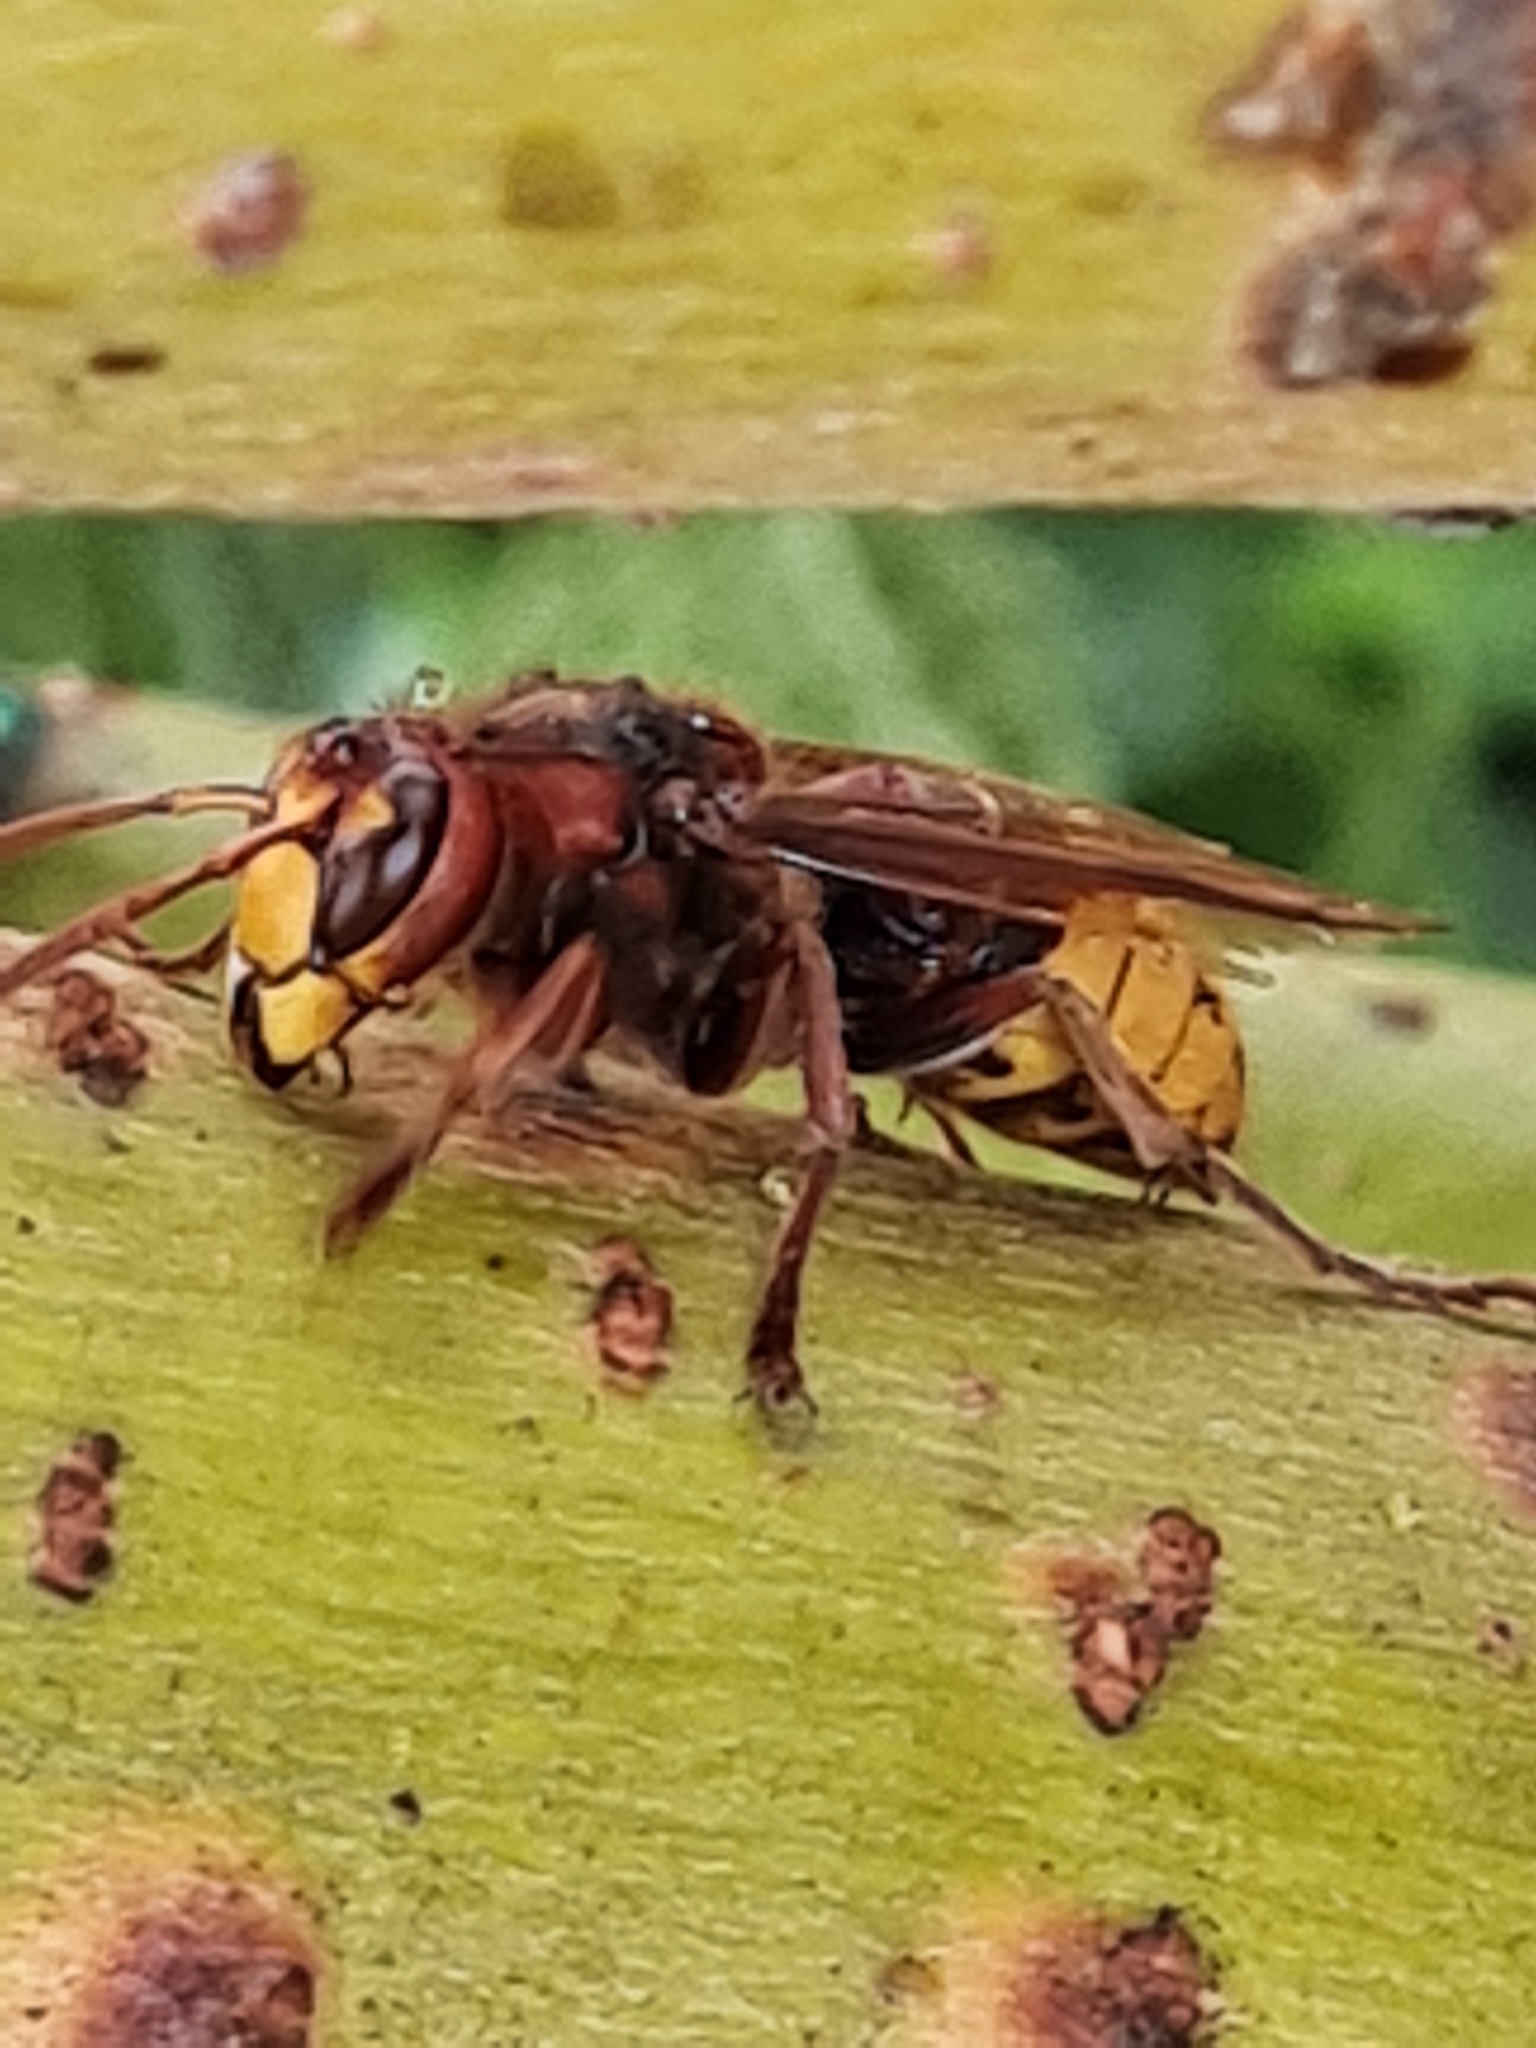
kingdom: Animalia
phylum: Arthropoda
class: Insecta
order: Hymenoptera
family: Vespidae
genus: Vespa
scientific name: Vespa crabro
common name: Hornet
